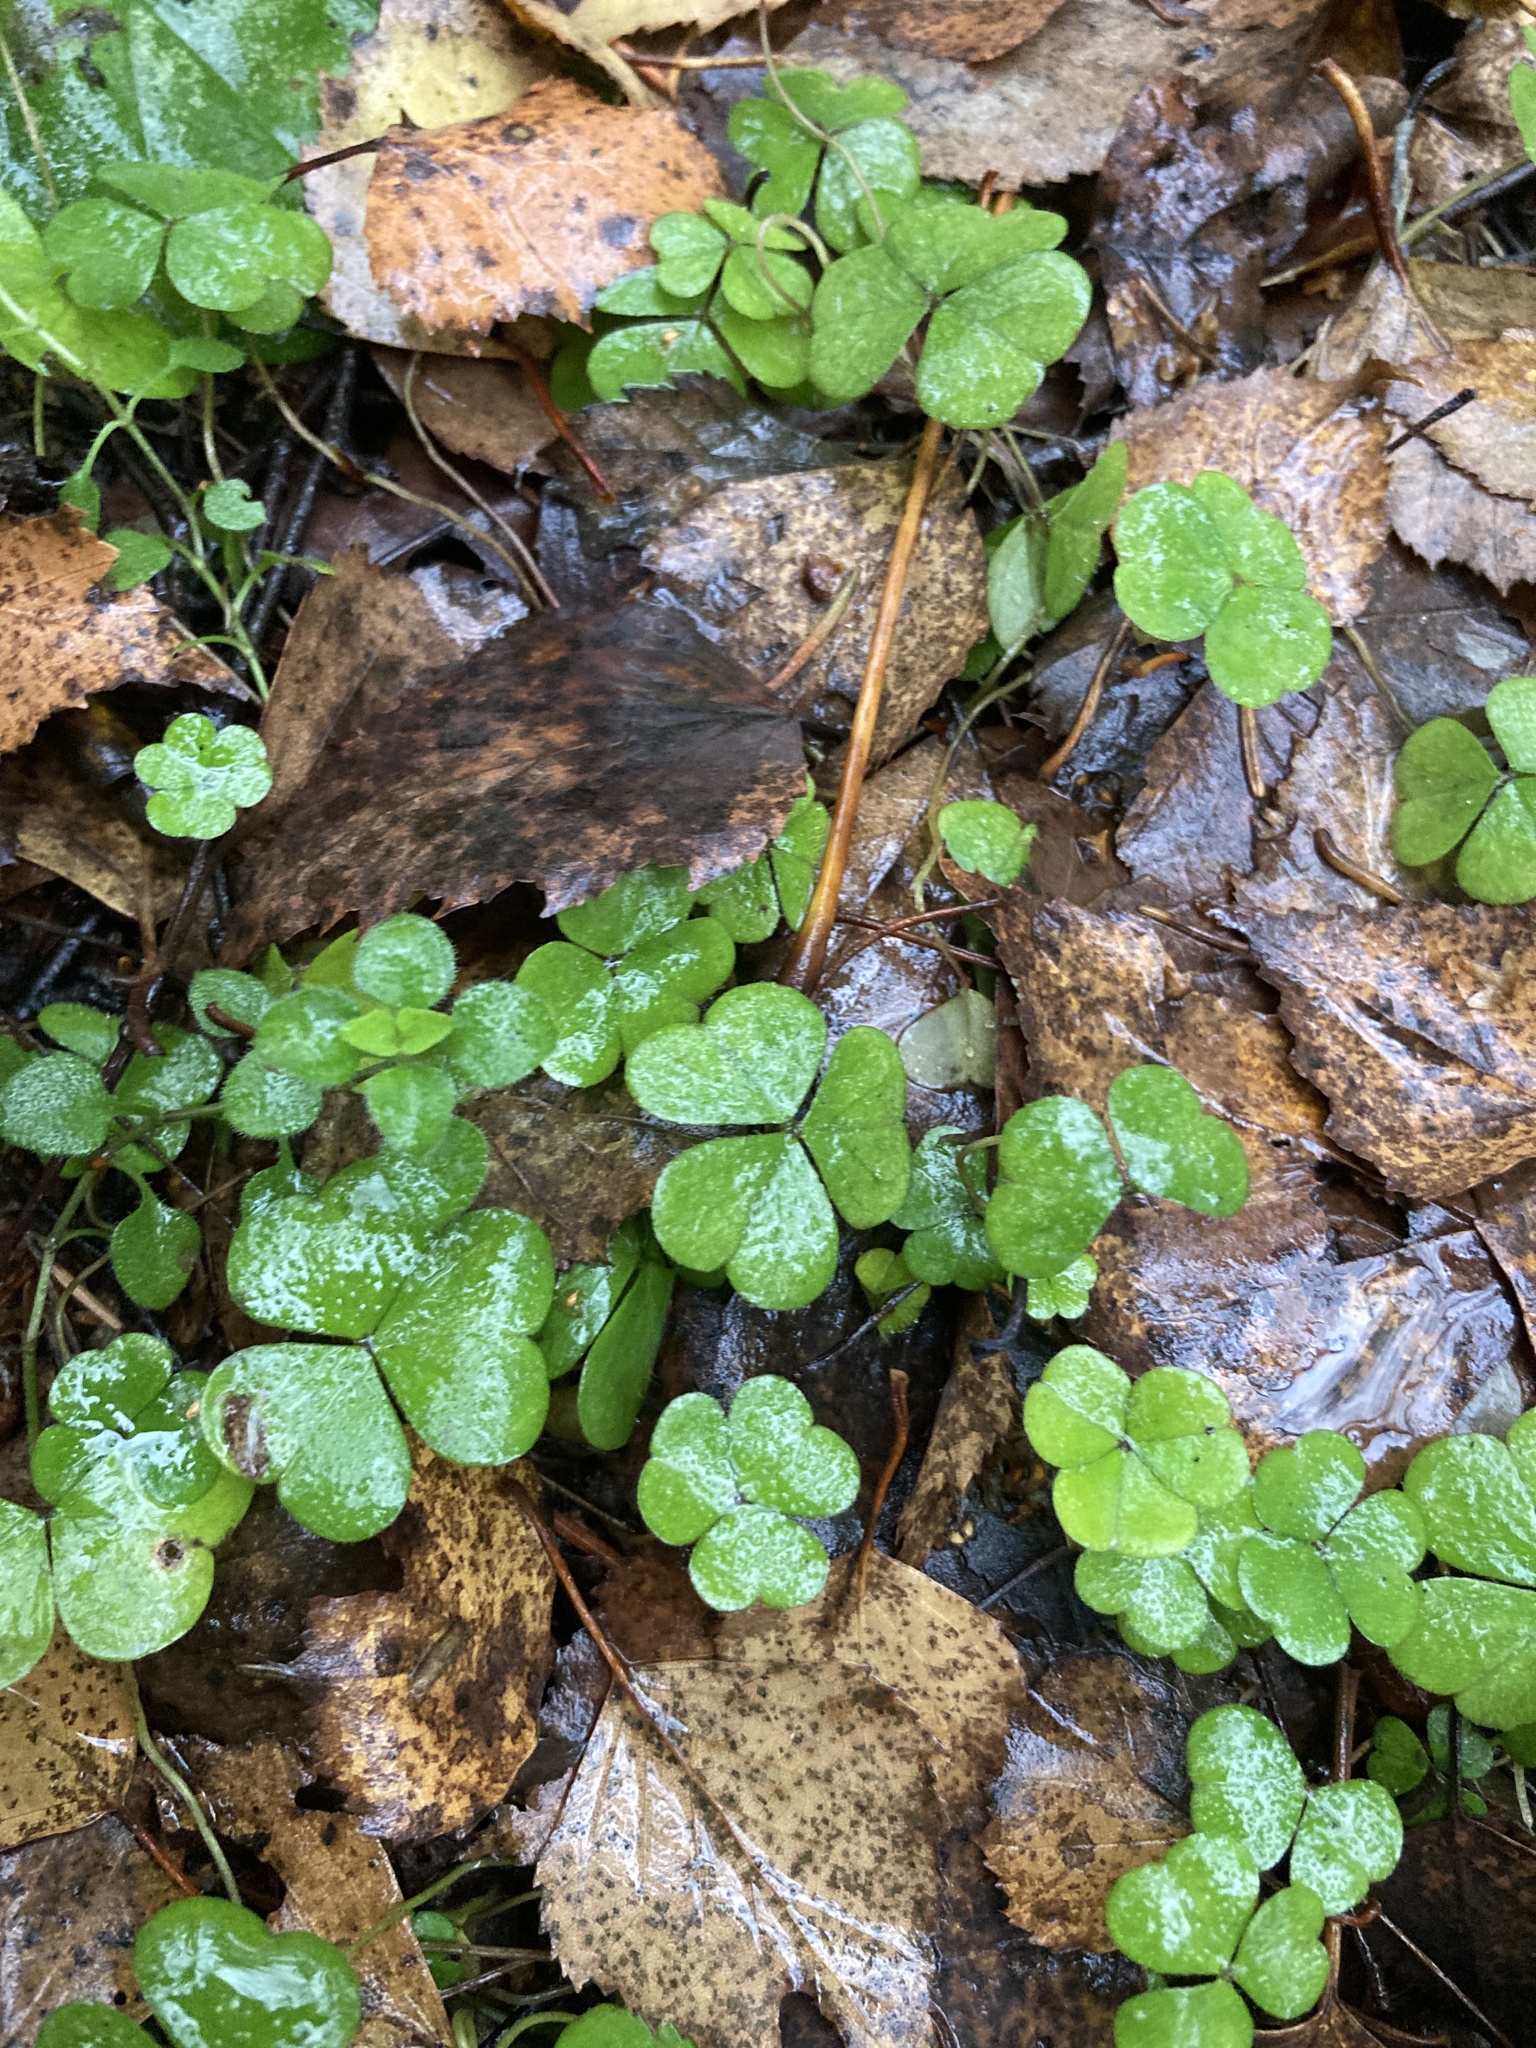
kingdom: Plantae
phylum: Tracheophyta
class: Magnoliopsida
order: Oxalidales
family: Oxalidaceae
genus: Oxalis
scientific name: Oxalis acetosella
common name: Wood-sorrel
